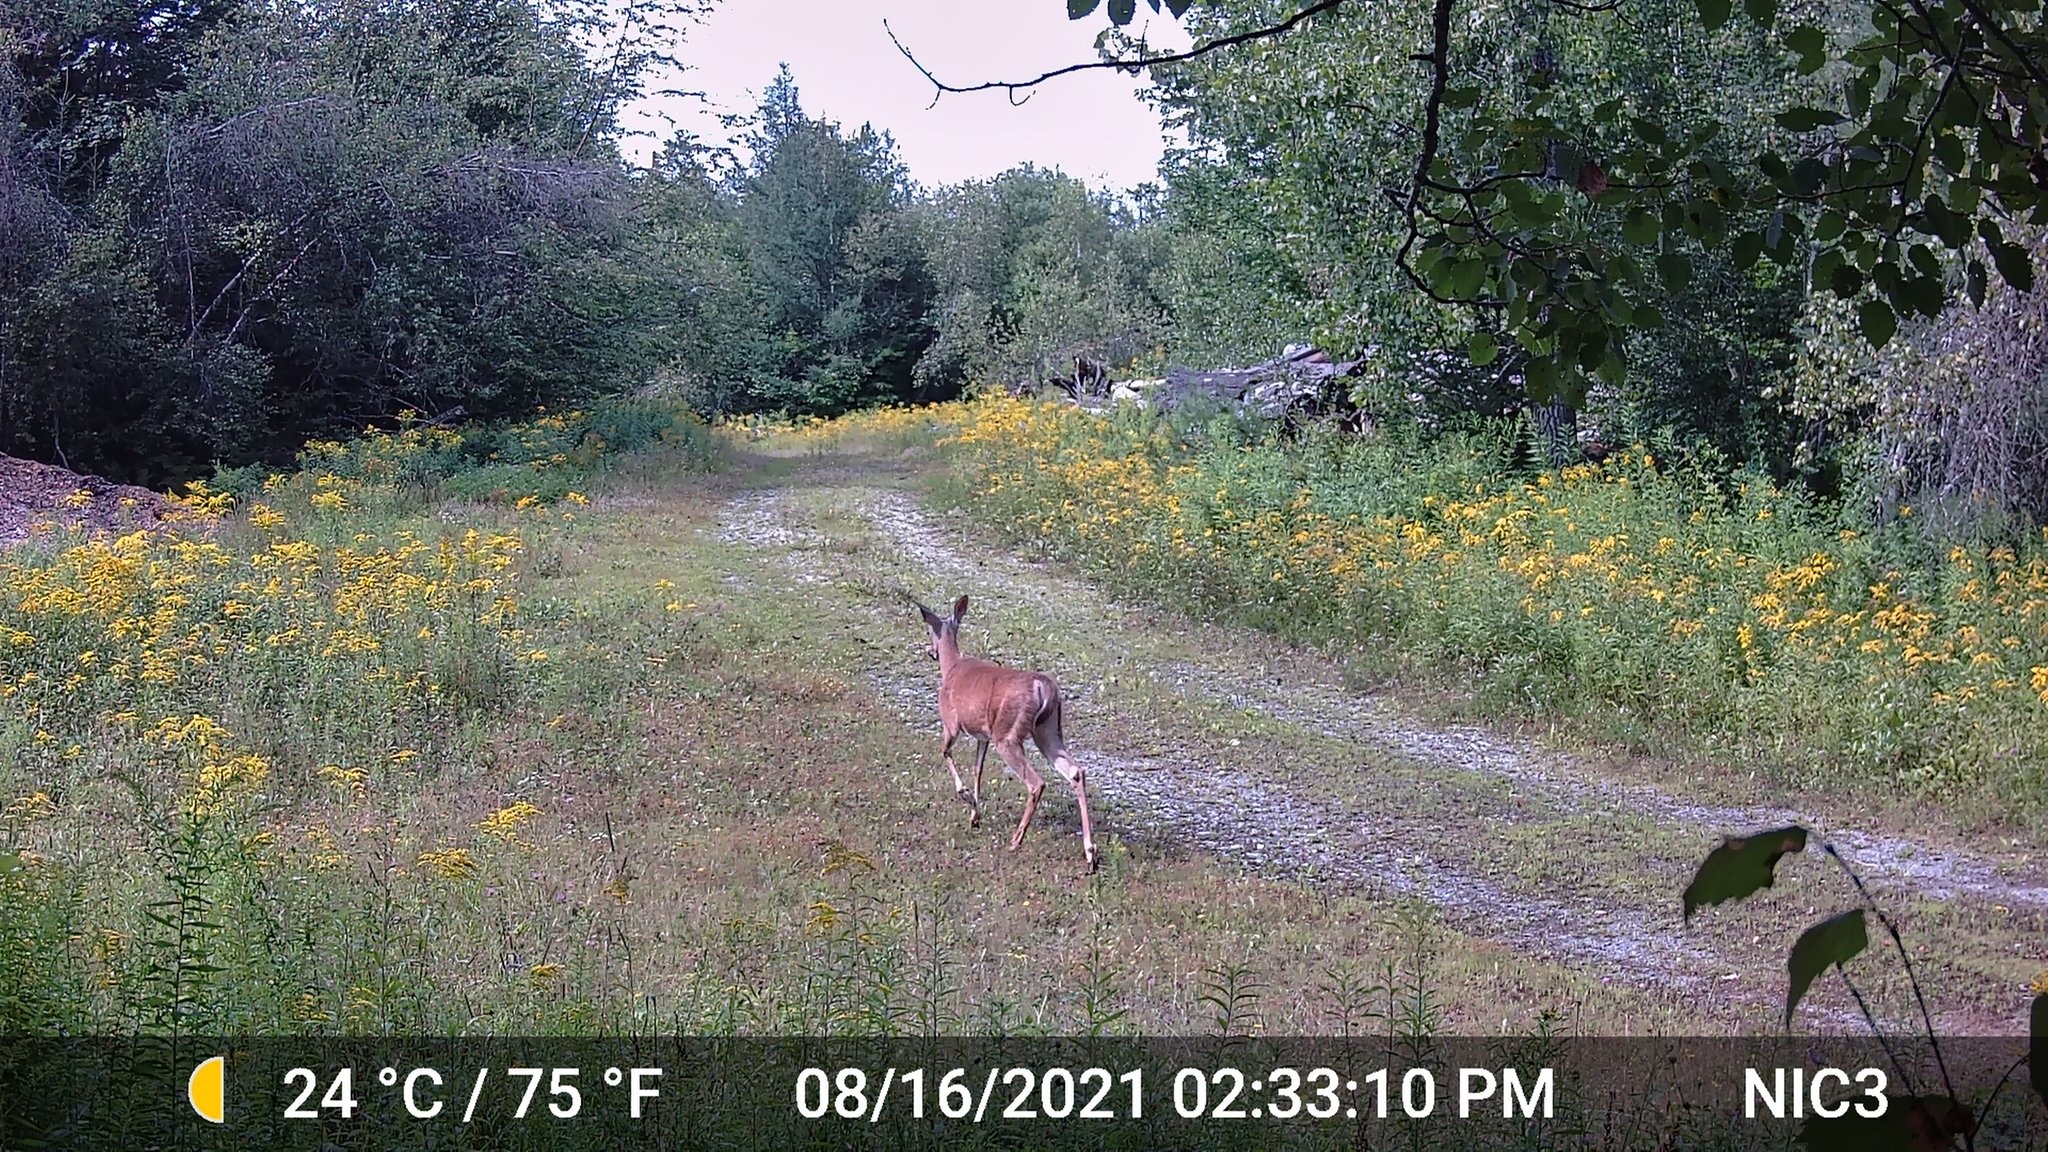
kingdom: Animalia
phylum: Chordata
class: Mammalia
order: Artiodactyla
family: Cervidae
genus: Odocoileus
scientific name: Odocoileus virginianus
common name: White-tailed deer
